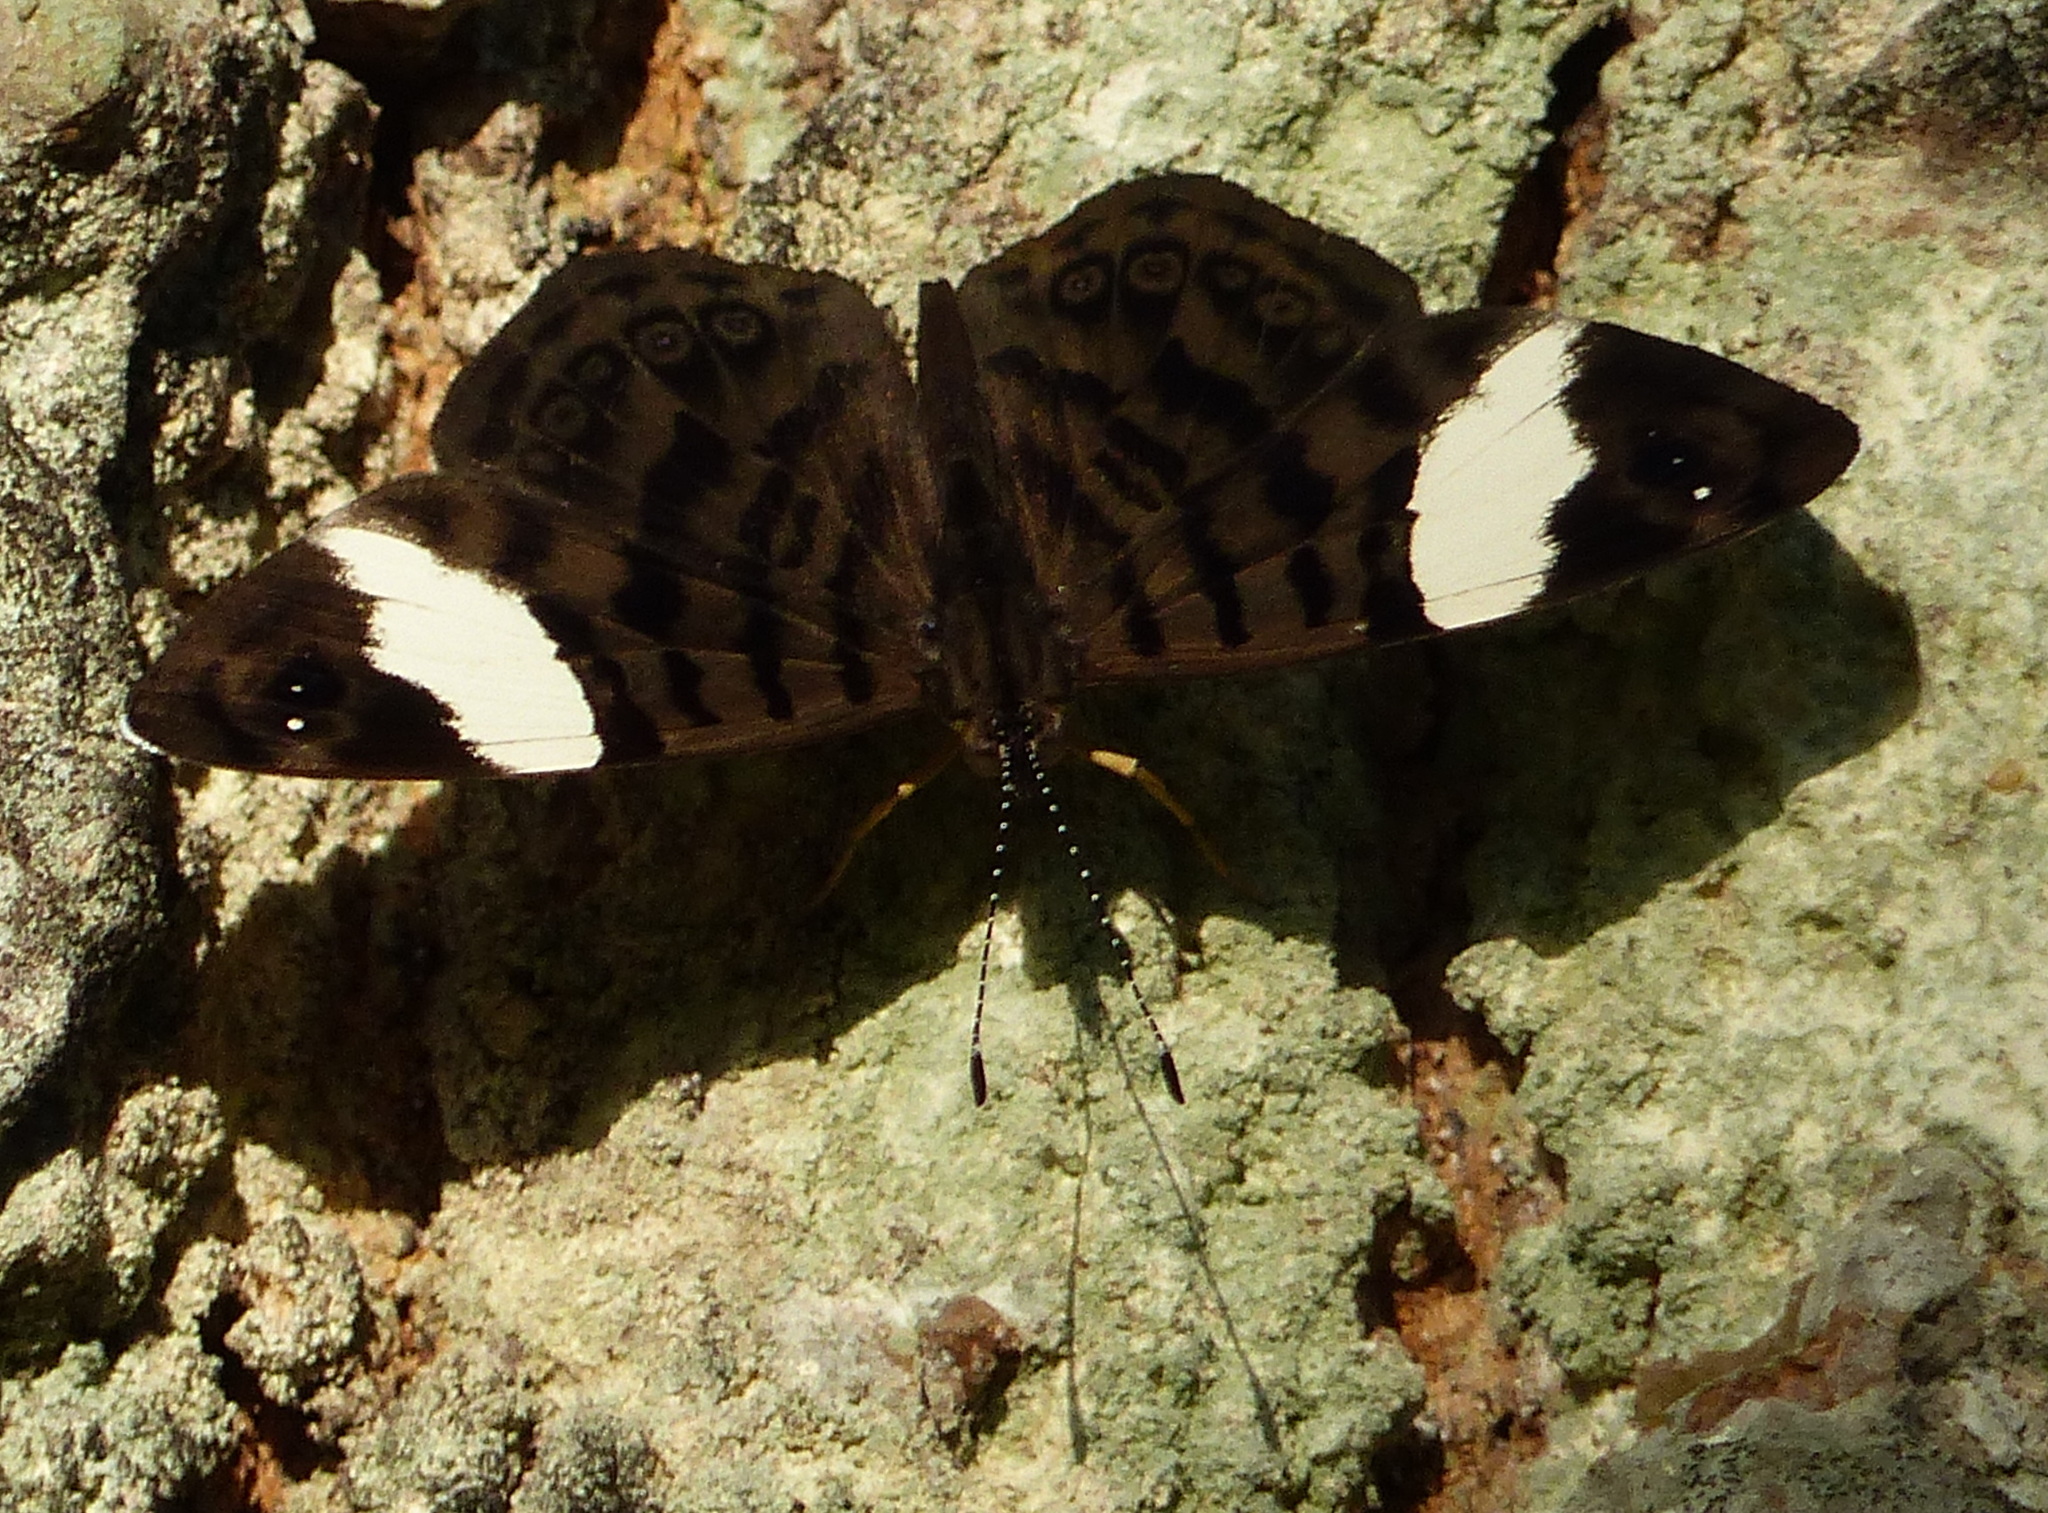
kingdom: Animalia
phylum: Arthropoda
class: Insecta
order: Lepidoptera
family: Nymphalidae
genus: Ectima
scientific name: Ectima thecla
